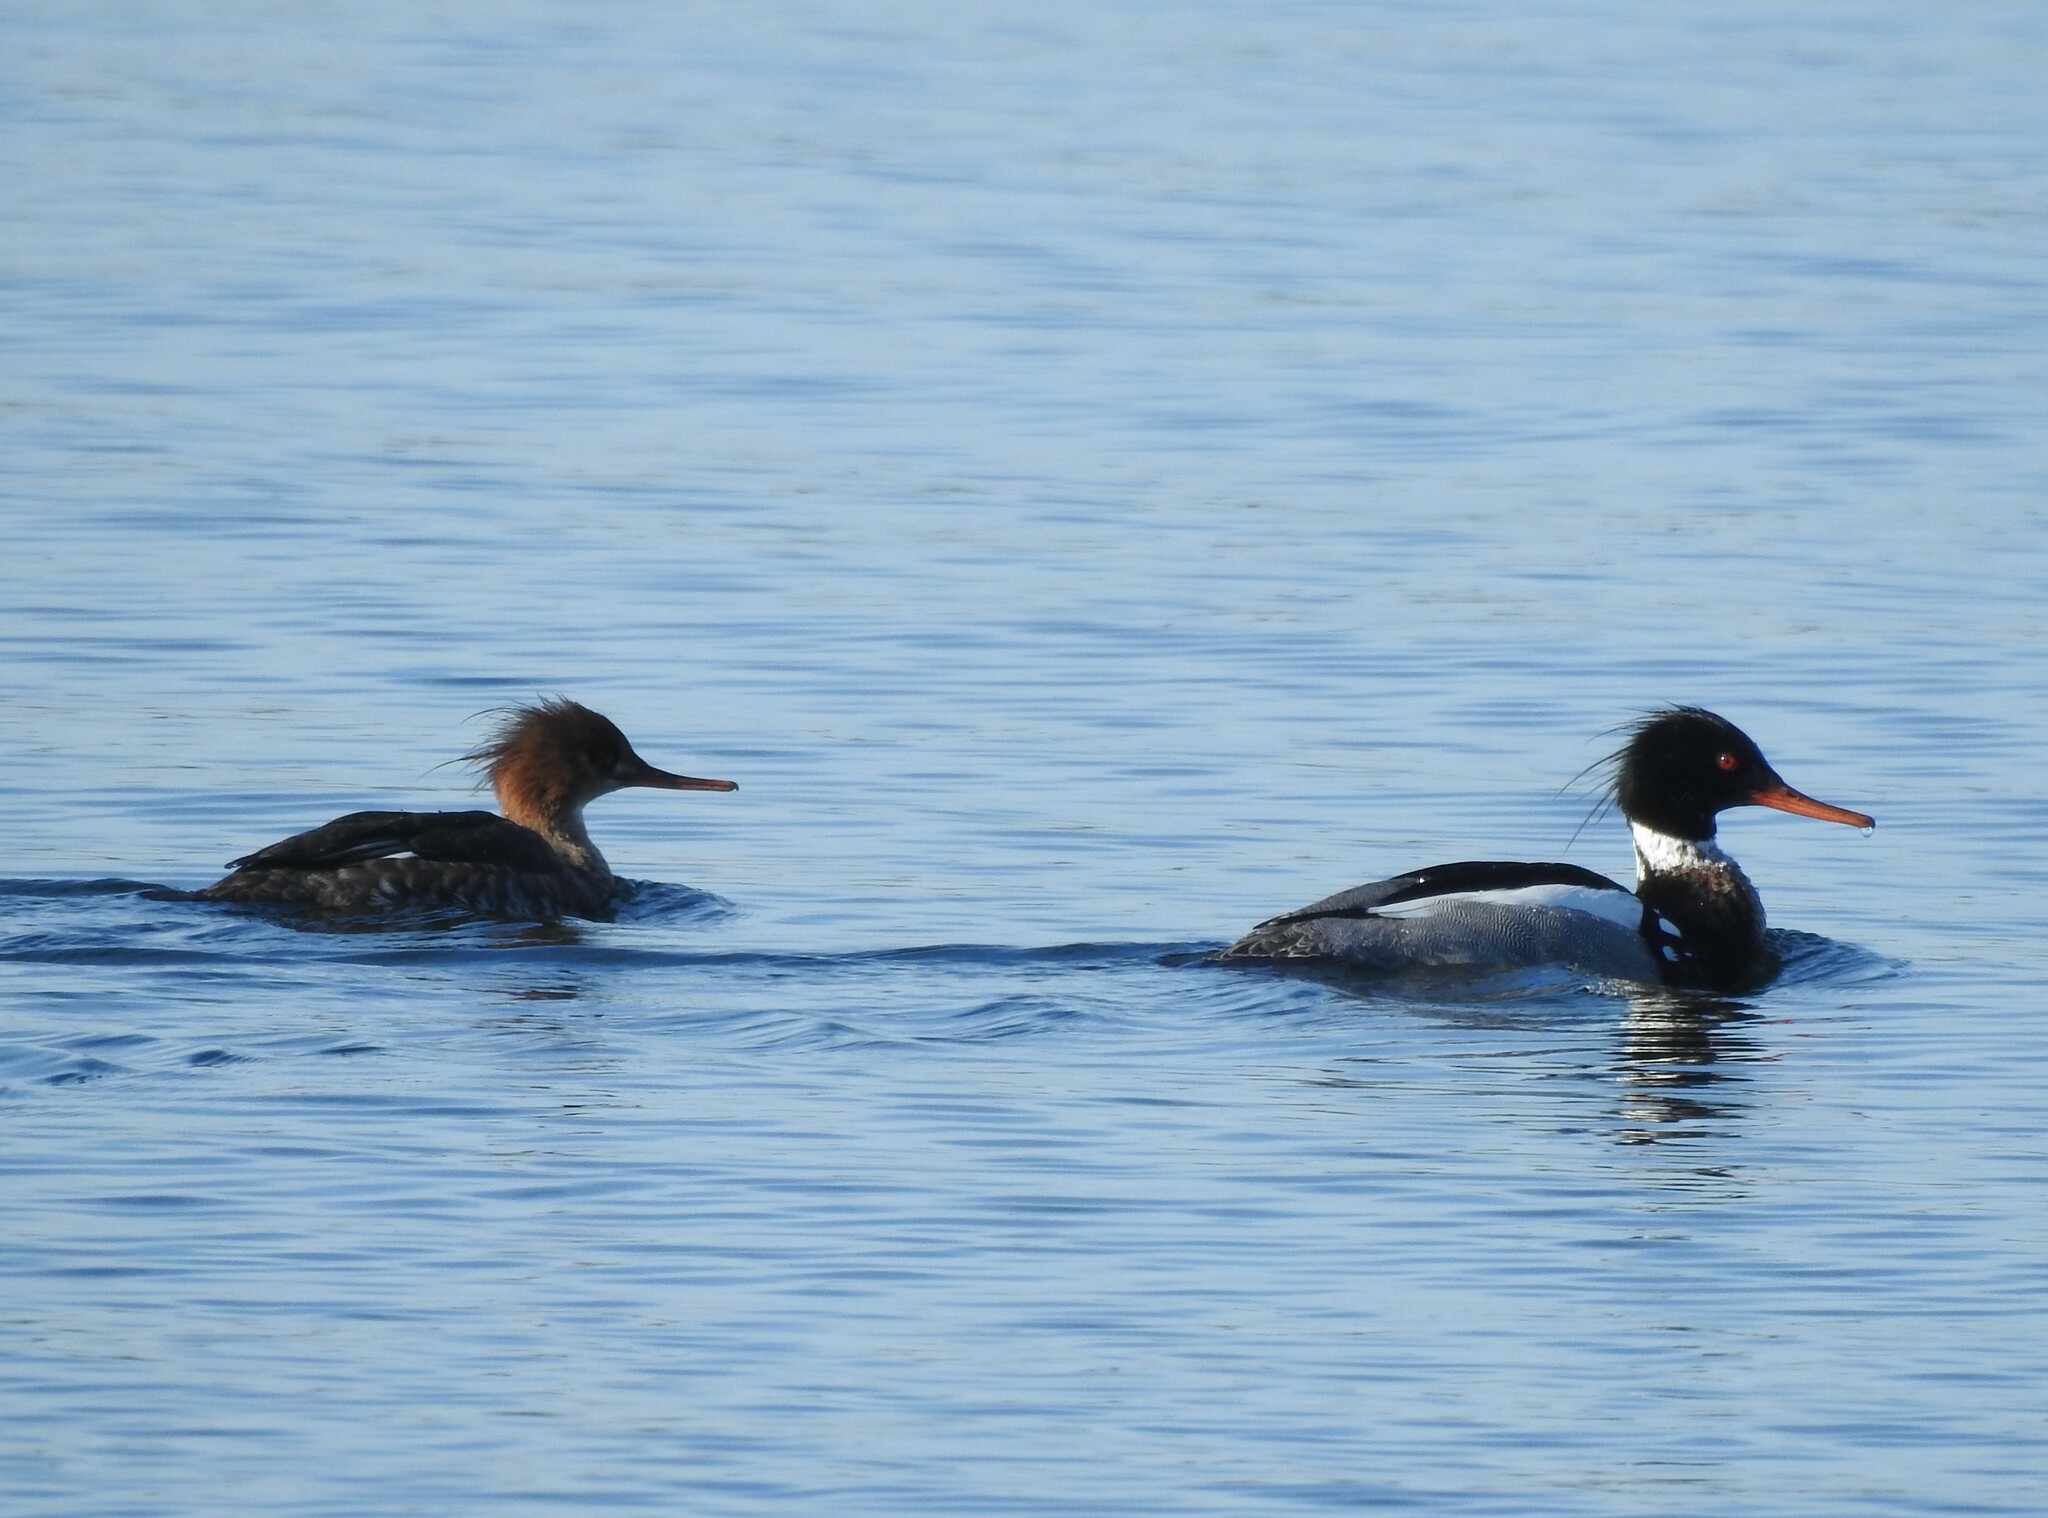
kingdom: Animalia
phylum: Chordata
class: Aves
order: Anseriformes
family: Anatidae
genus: Mergus
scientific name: Mergus serrator
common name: Red-breasted merganser
